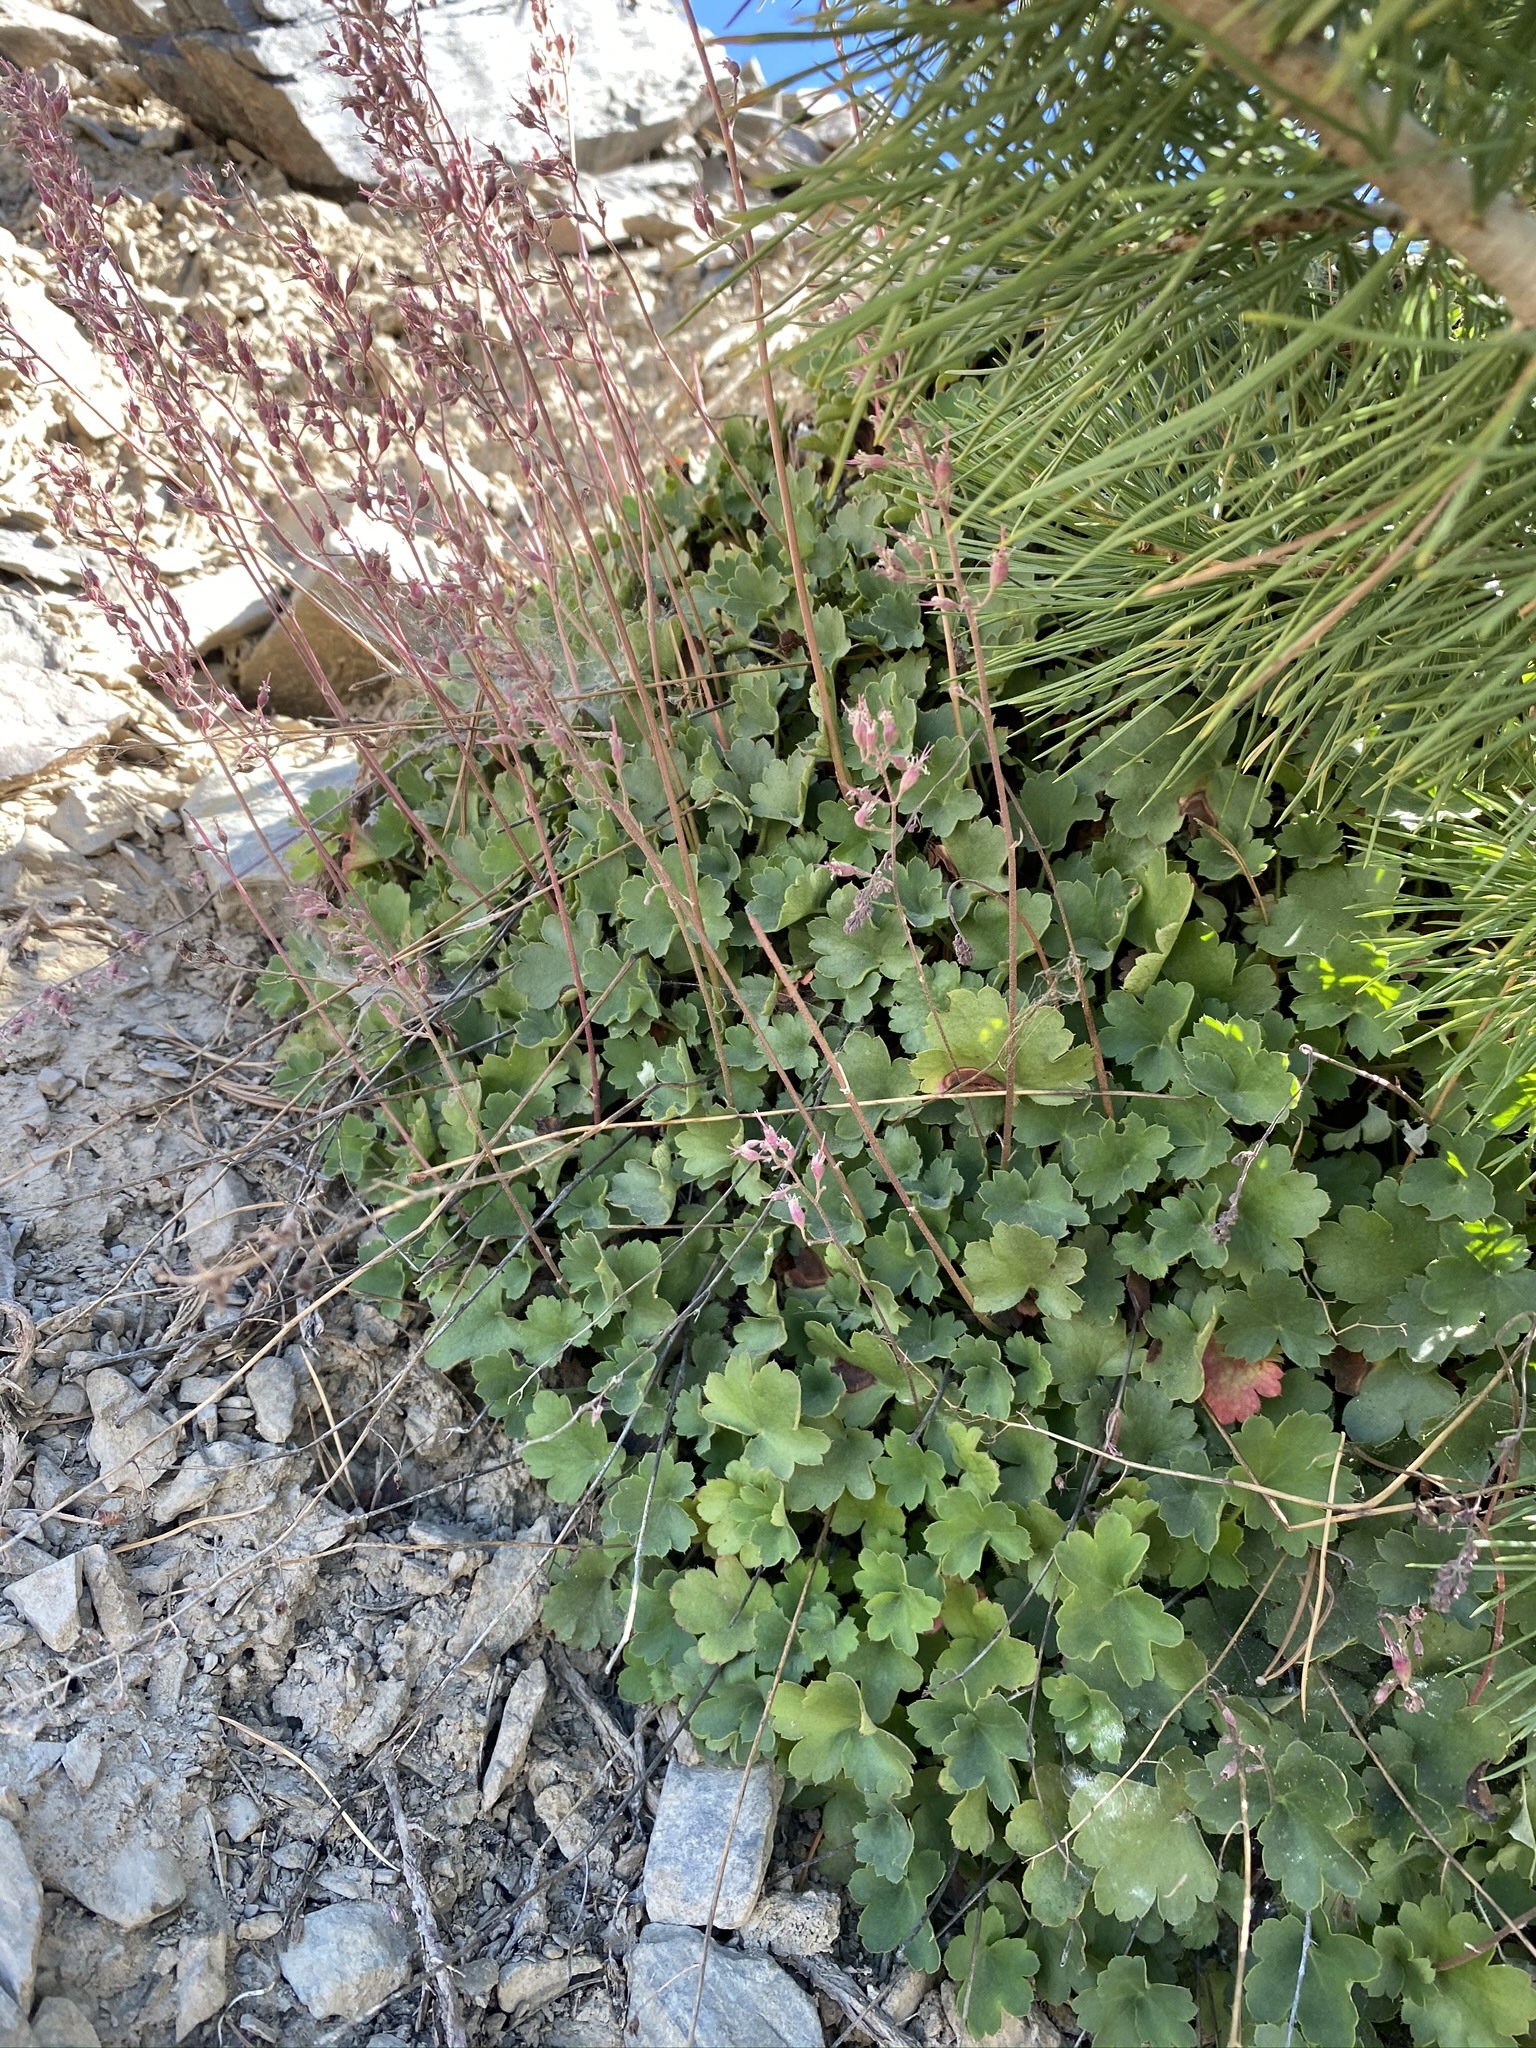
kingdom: Plantae
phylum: Tracheophyta
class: Magnoliopsida
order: Saxifragales
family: Saxifragaceae
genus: Heuchera
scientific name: Heuchera rubescens
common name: Jack-o'the-rocks
